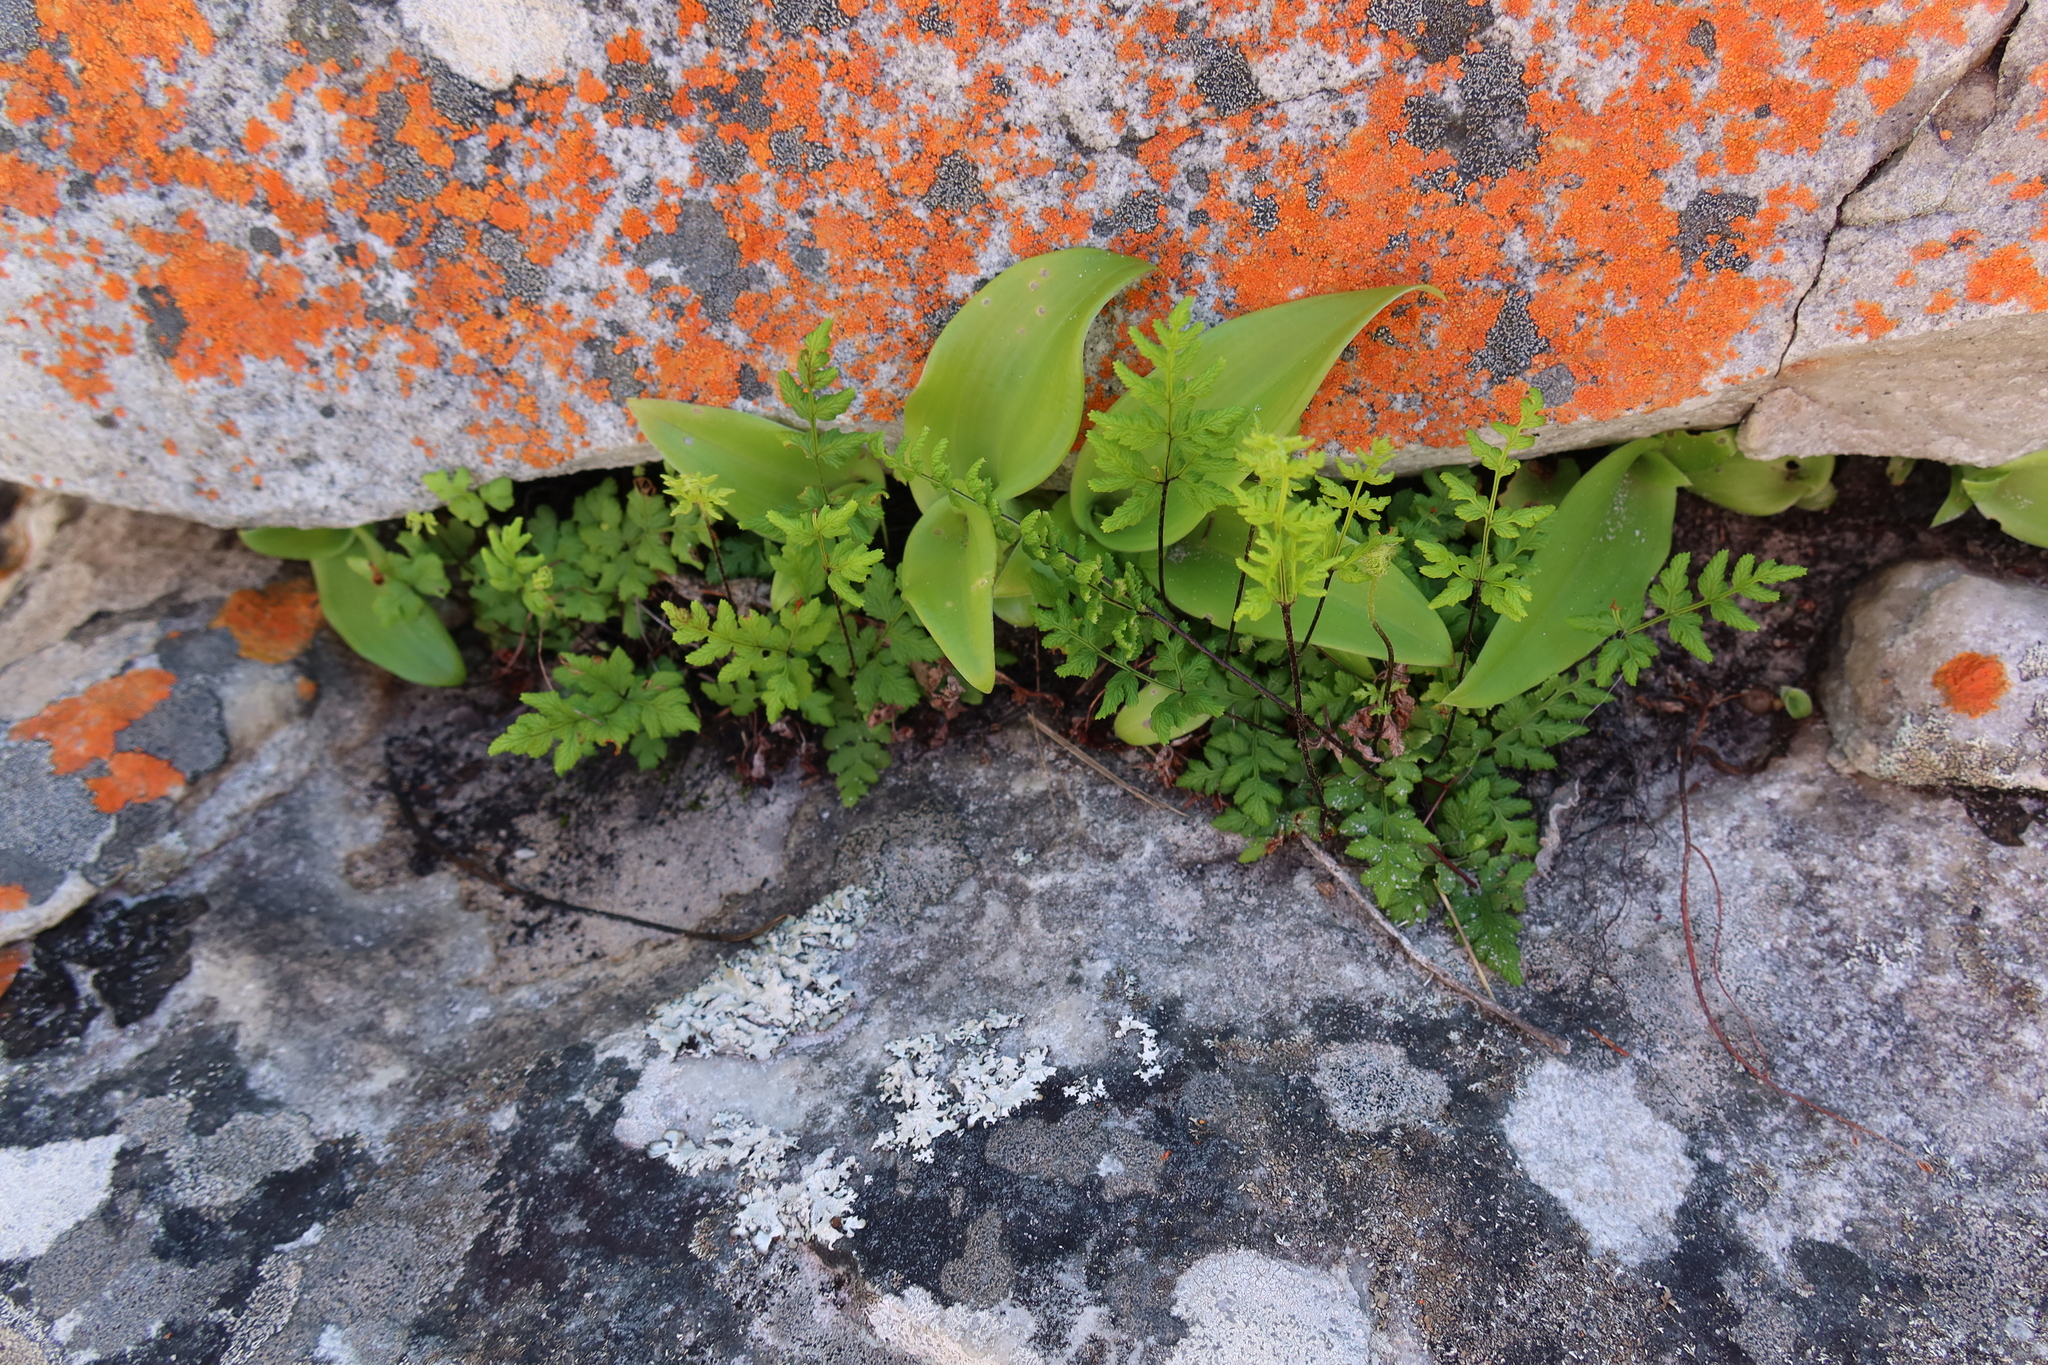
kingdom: Plantae
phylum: Tracheophyta
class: Polypodiopsida
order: Polypodiales
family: Pteridaceae
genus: Cheilanthes
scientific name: Cheilanthes capensis
